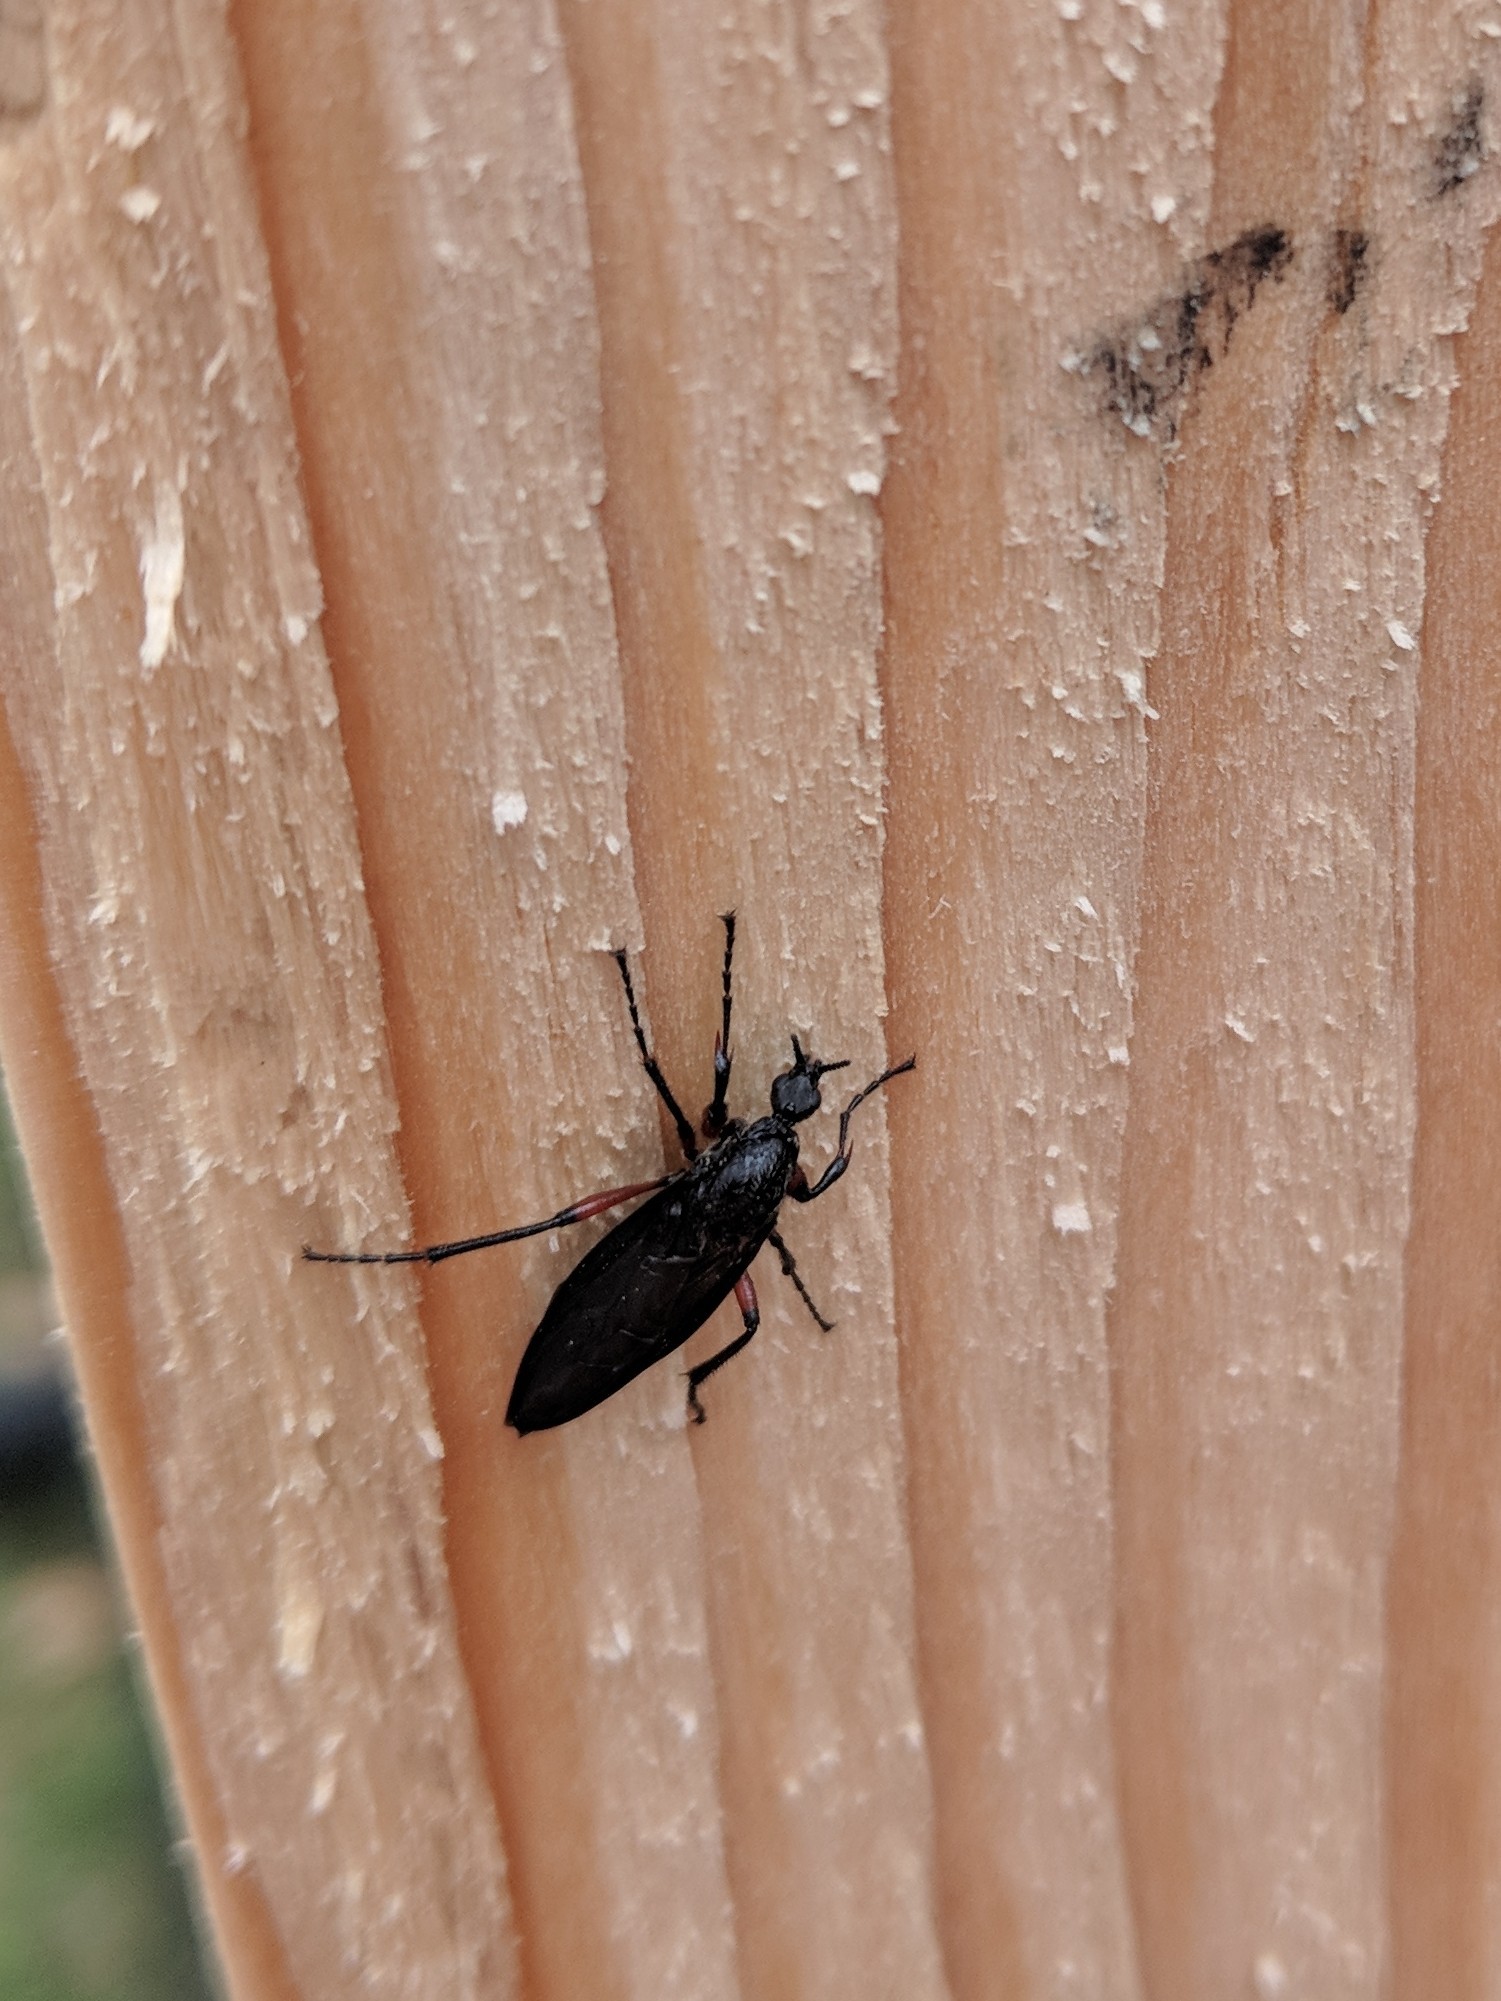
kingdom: Animalia
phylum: Arthropoda
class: Insecta
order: Diptera
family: Bibionidae
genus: Bibio
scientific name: Bibio femoratus
